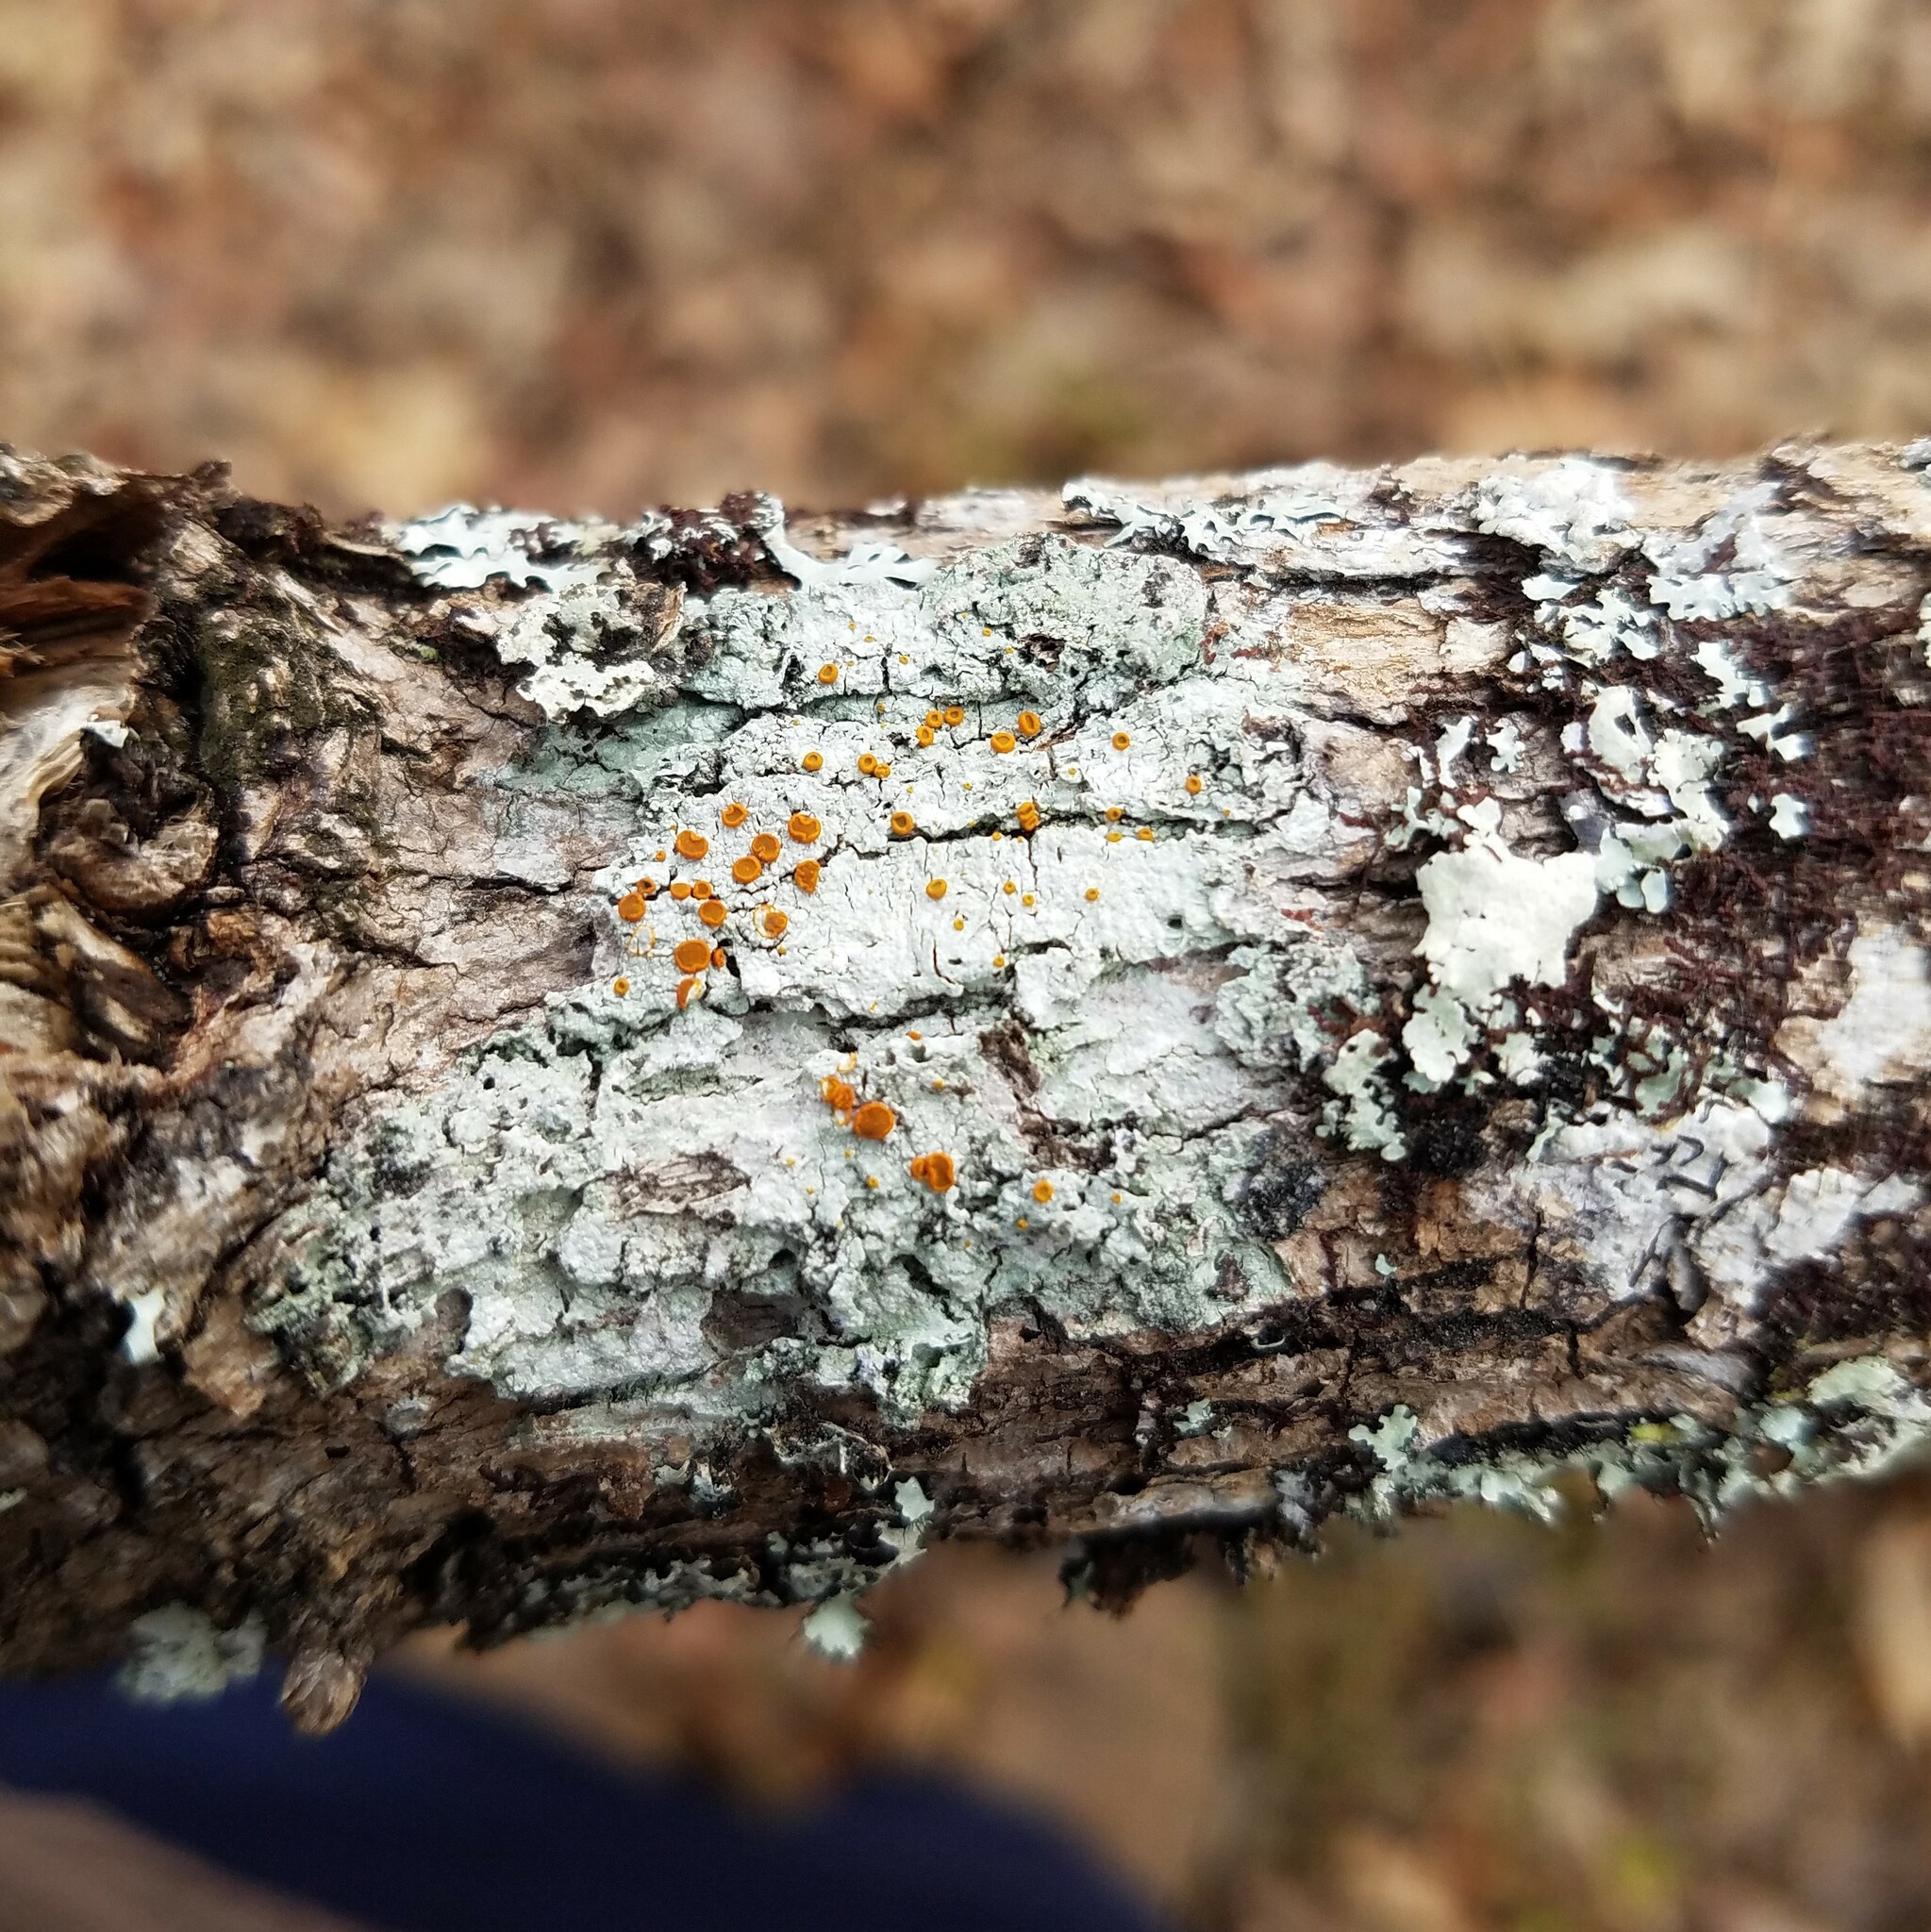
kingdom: Fungi
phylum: Ascomycota
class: Lecanoromycetes
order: Teloschistales
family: Brigantiaeaceae
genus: Brigantiaea
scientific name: Brigantiaea leucoxantha
